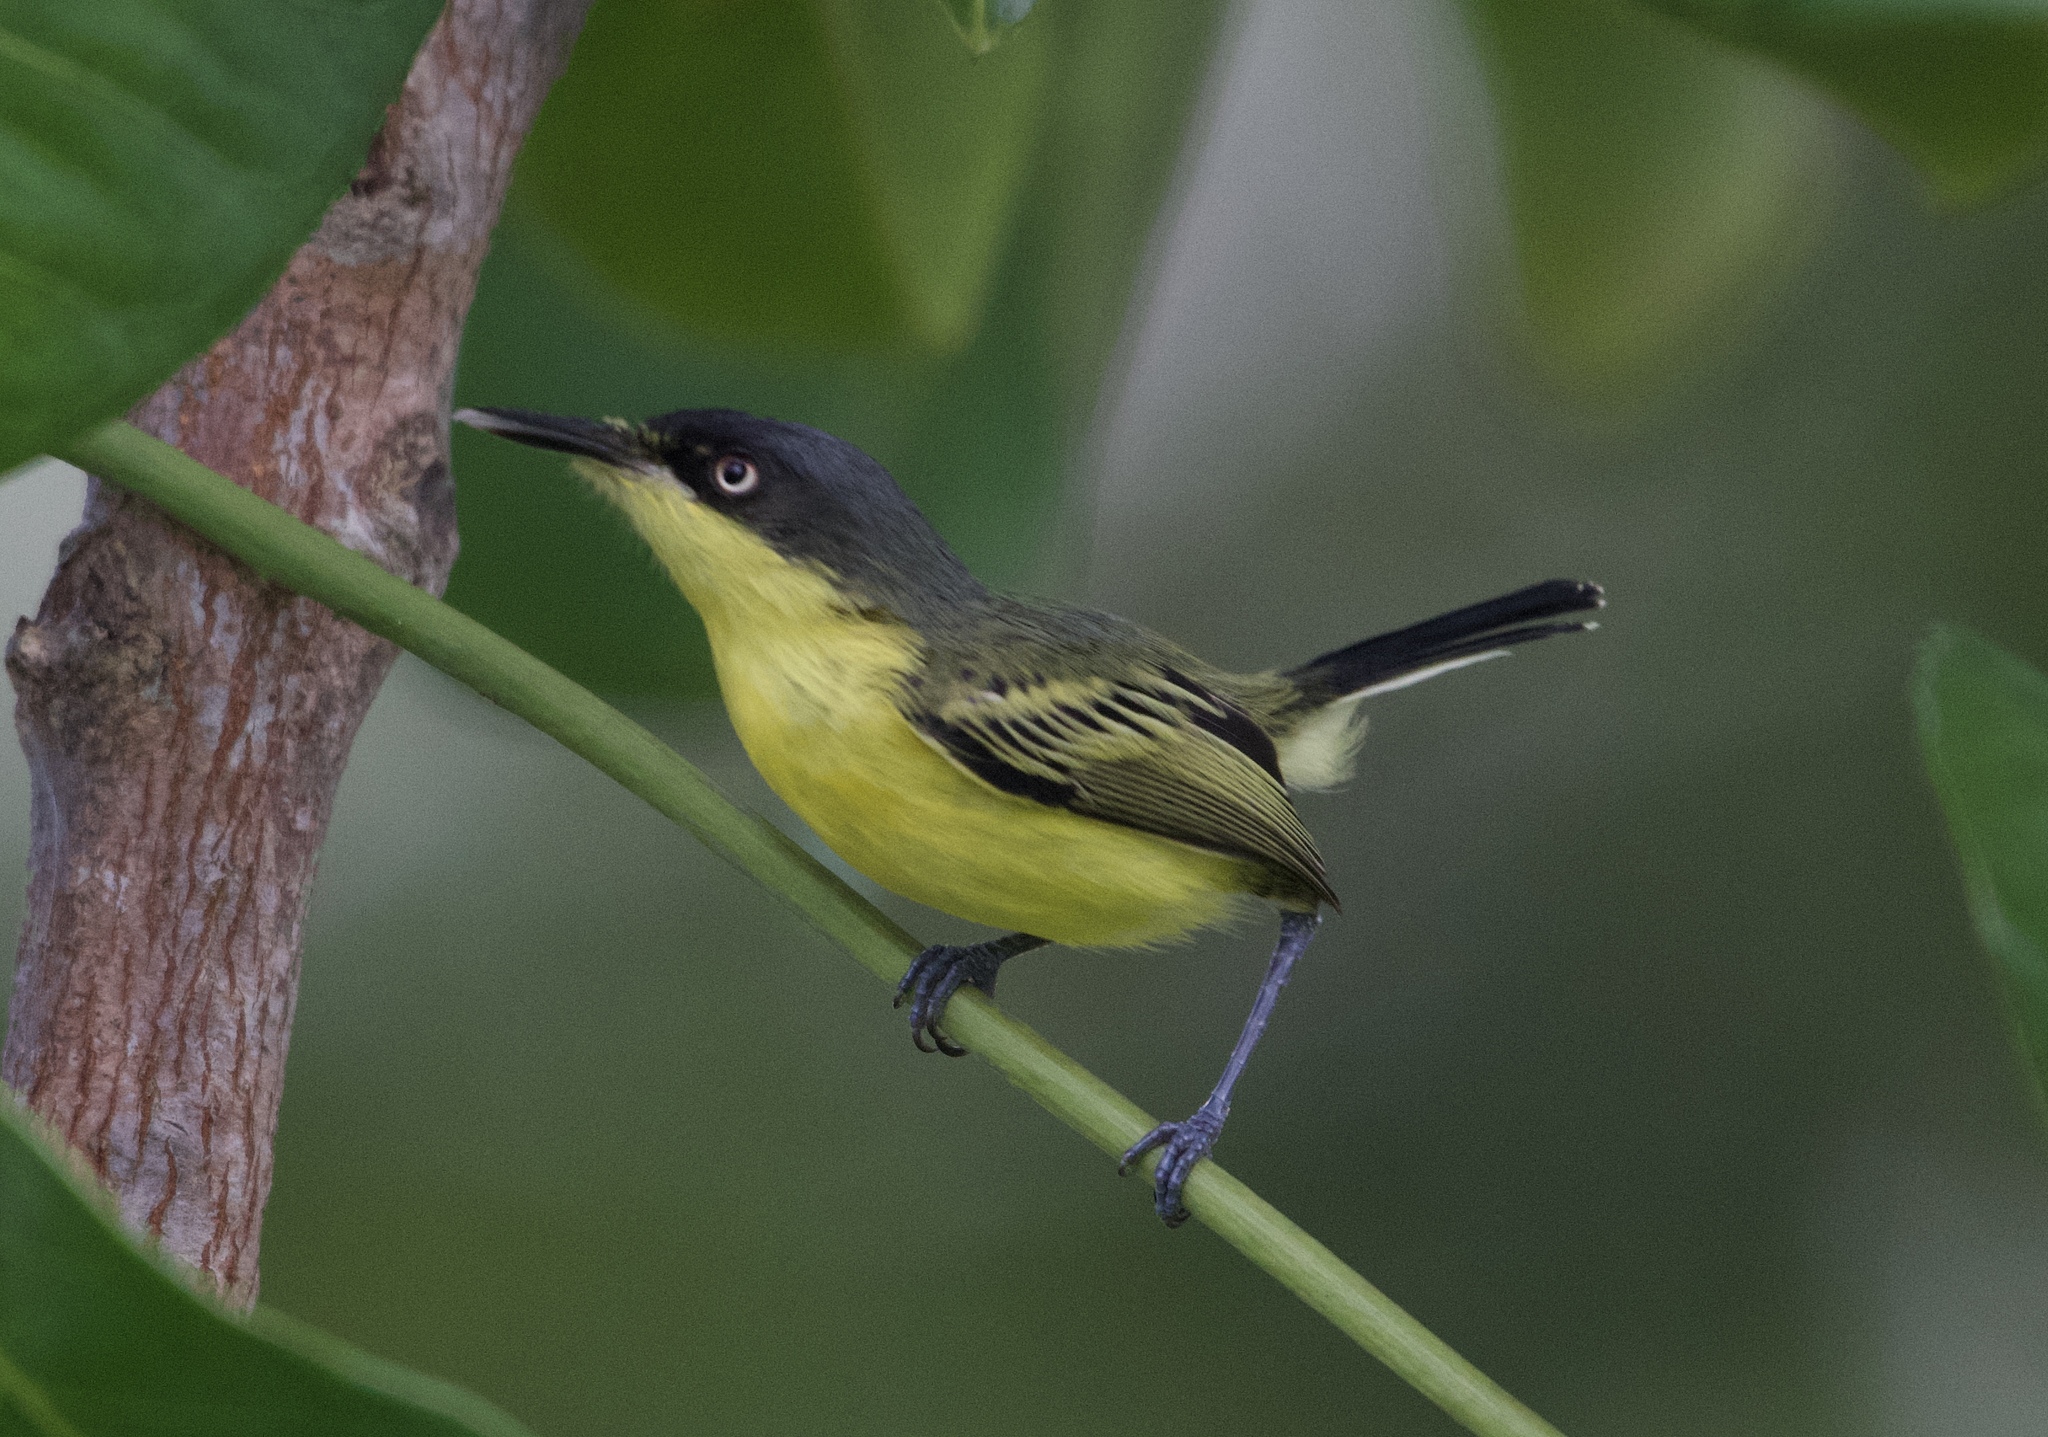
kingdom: Animalia
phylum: Chordata
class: Aves
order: Passeriformes
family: Tyrannidae
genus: Todirostrum
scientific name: Todirostrum cinereum
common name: Common tody-flycatcher
